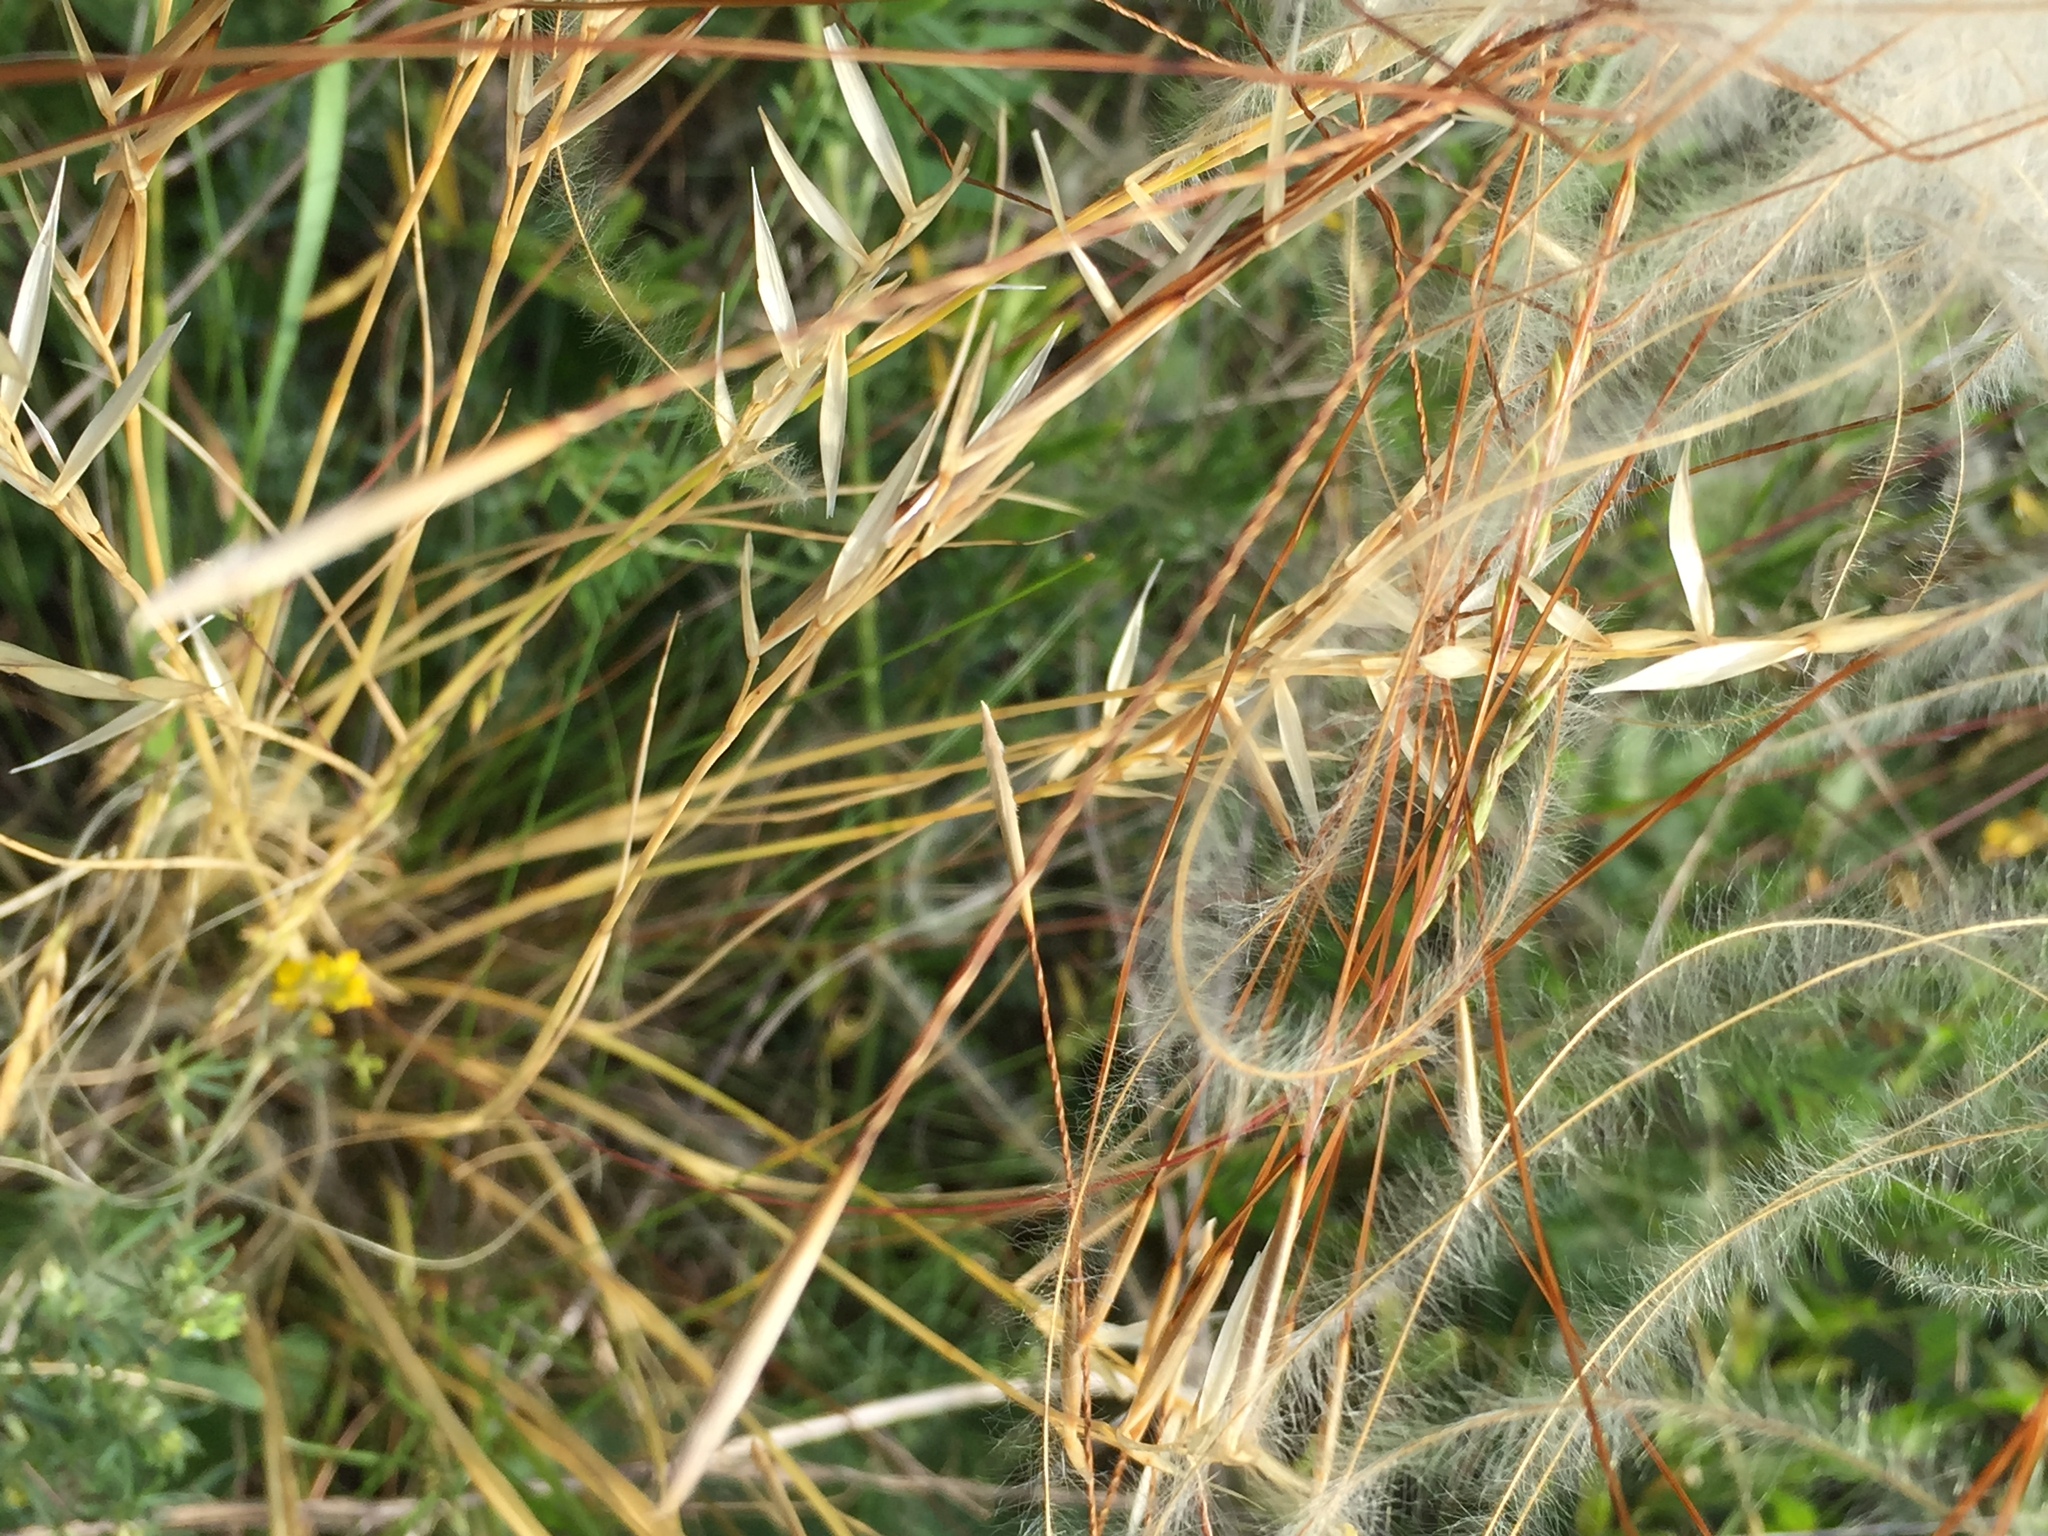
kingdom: Plantae
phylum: Tracheophyta
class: Liliopsida
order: Poales
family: Poaceae
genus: Stipa
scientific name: Stipa pennata
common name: European feather grass
